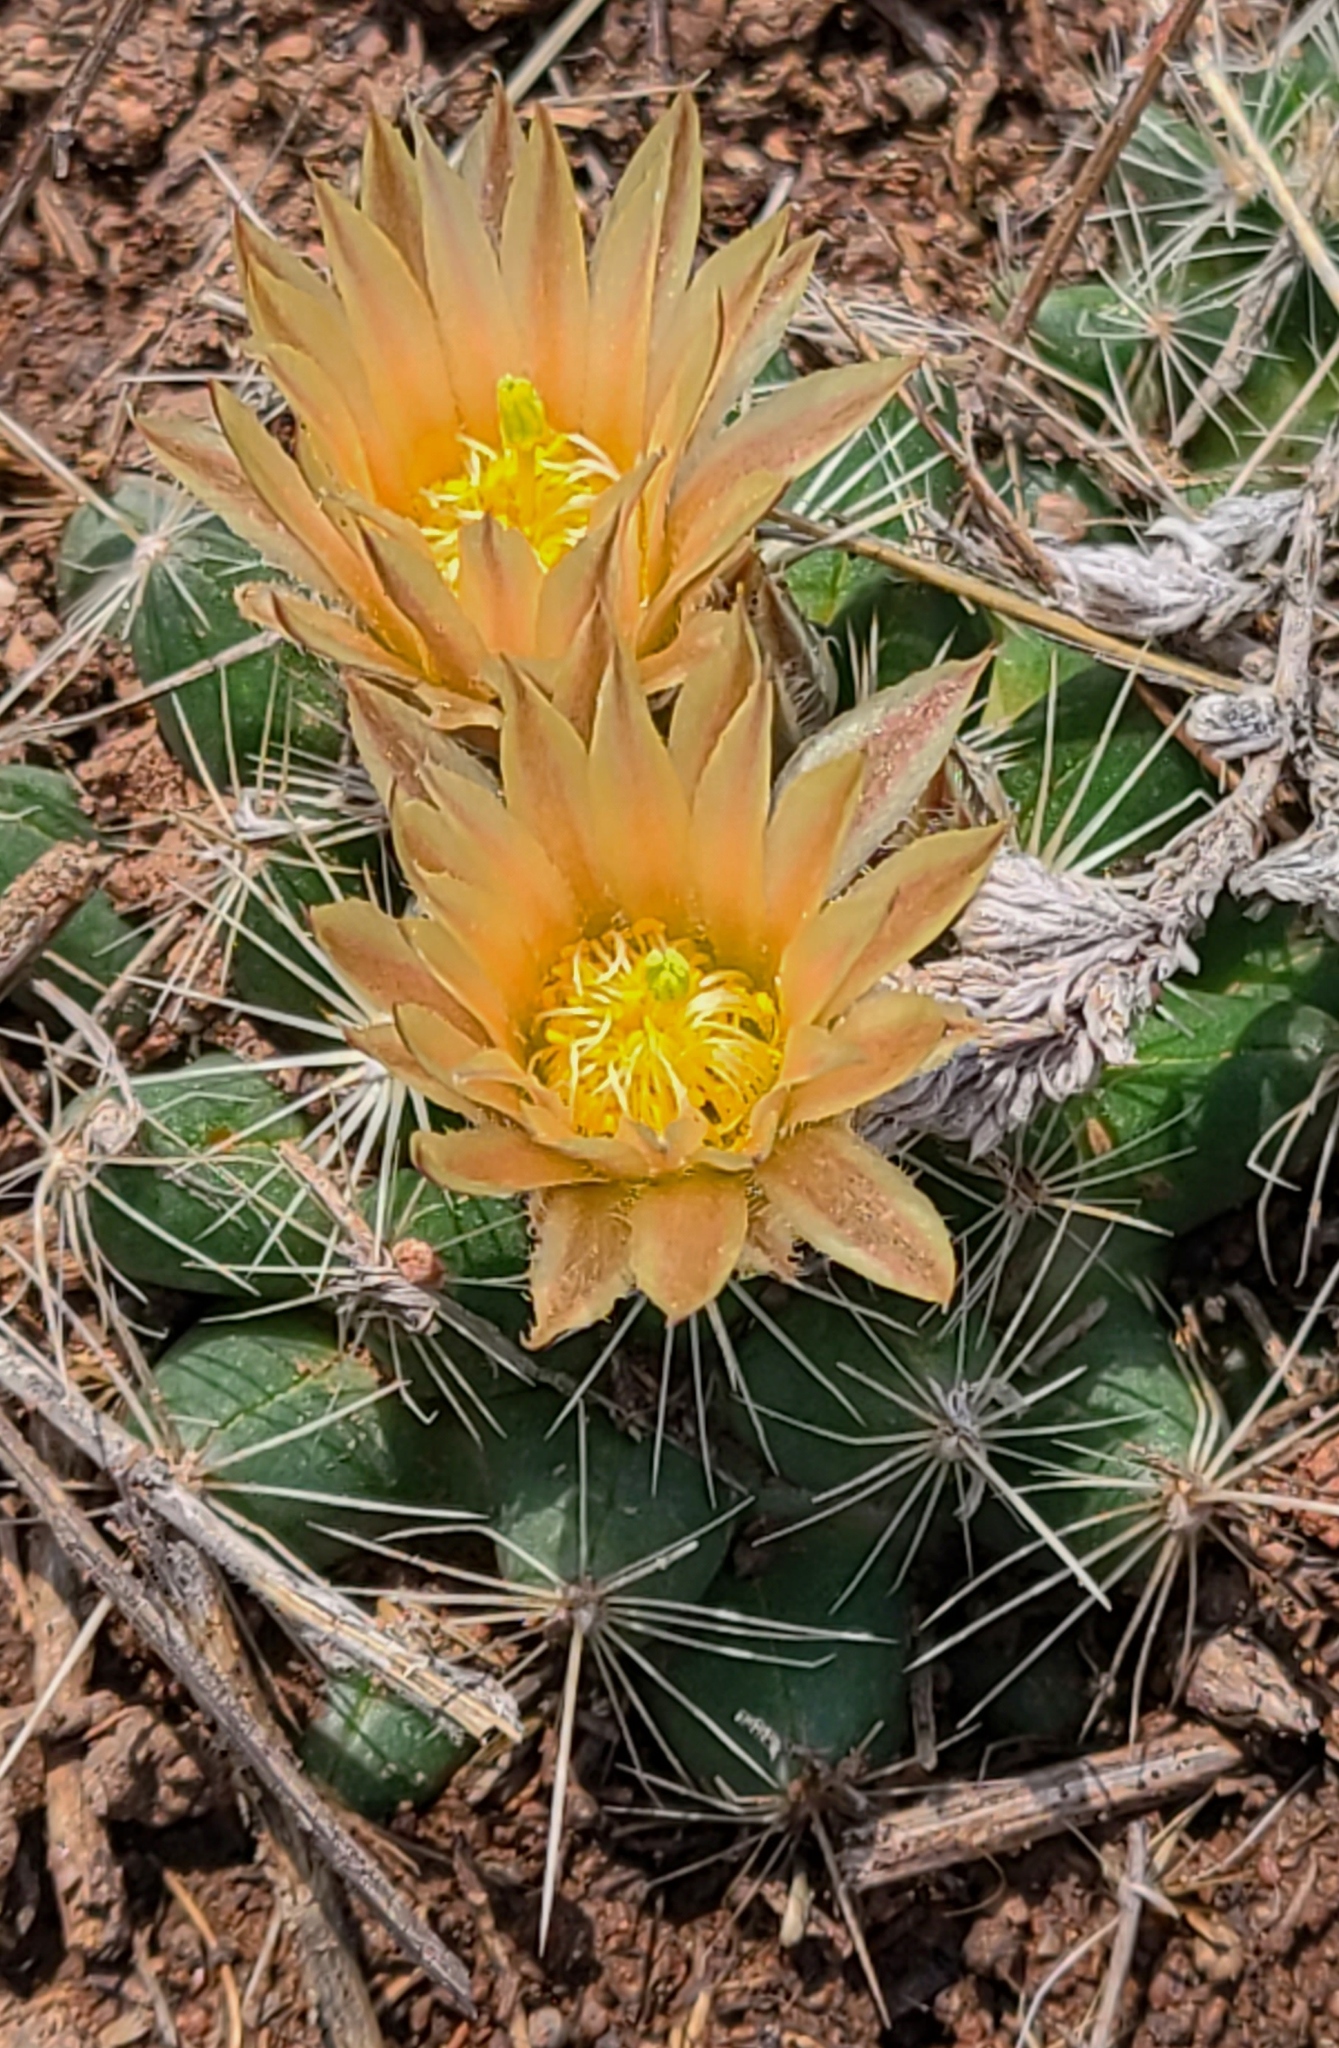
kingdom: Plantae
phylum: Tracheophyta
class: Magnoliopsida
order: Caryophyllales
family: Cactaceae
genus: Pelecyphora
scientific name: Pelecyphora missouriensis
